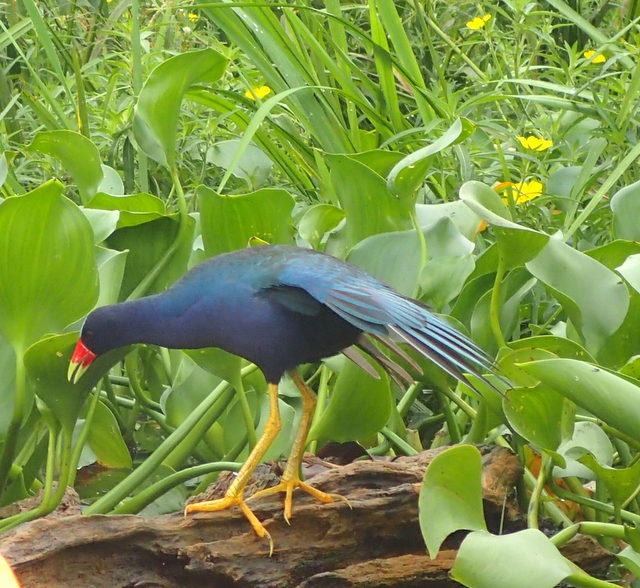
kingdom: Animalia
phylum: Chordata
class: Aves
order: Gruiformes
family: Rallidae
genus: Porphyrio
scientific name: Porphyrio martinica
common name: Purple gallinule
